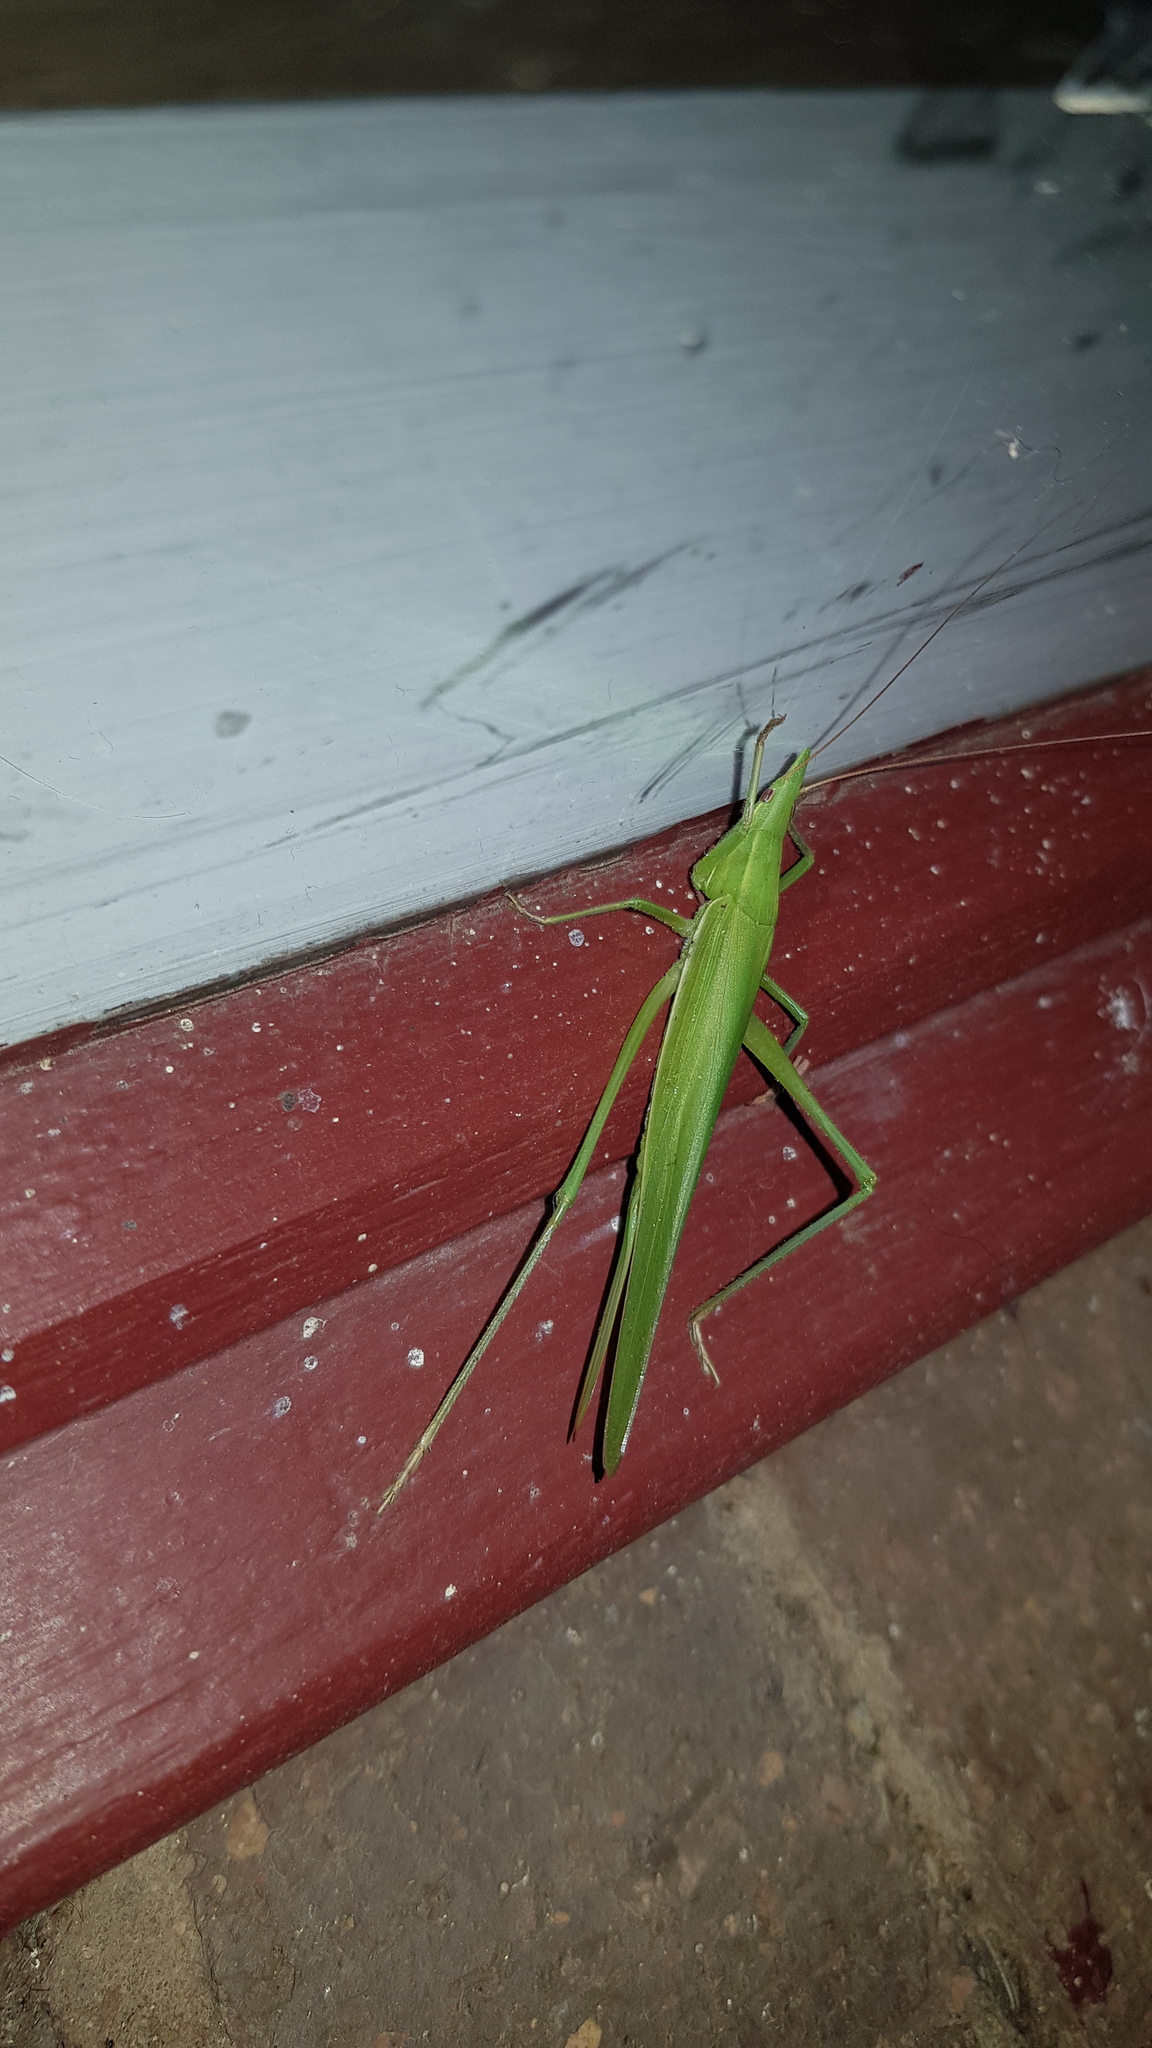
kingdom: Animalia
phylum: Arthropoda
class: Insecta
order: Orthoptera
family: Tettigoniidae
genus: Pseudorhynchus
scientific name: Pseudorhynchus lessonii
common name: Lesson's mimicking snout nose
